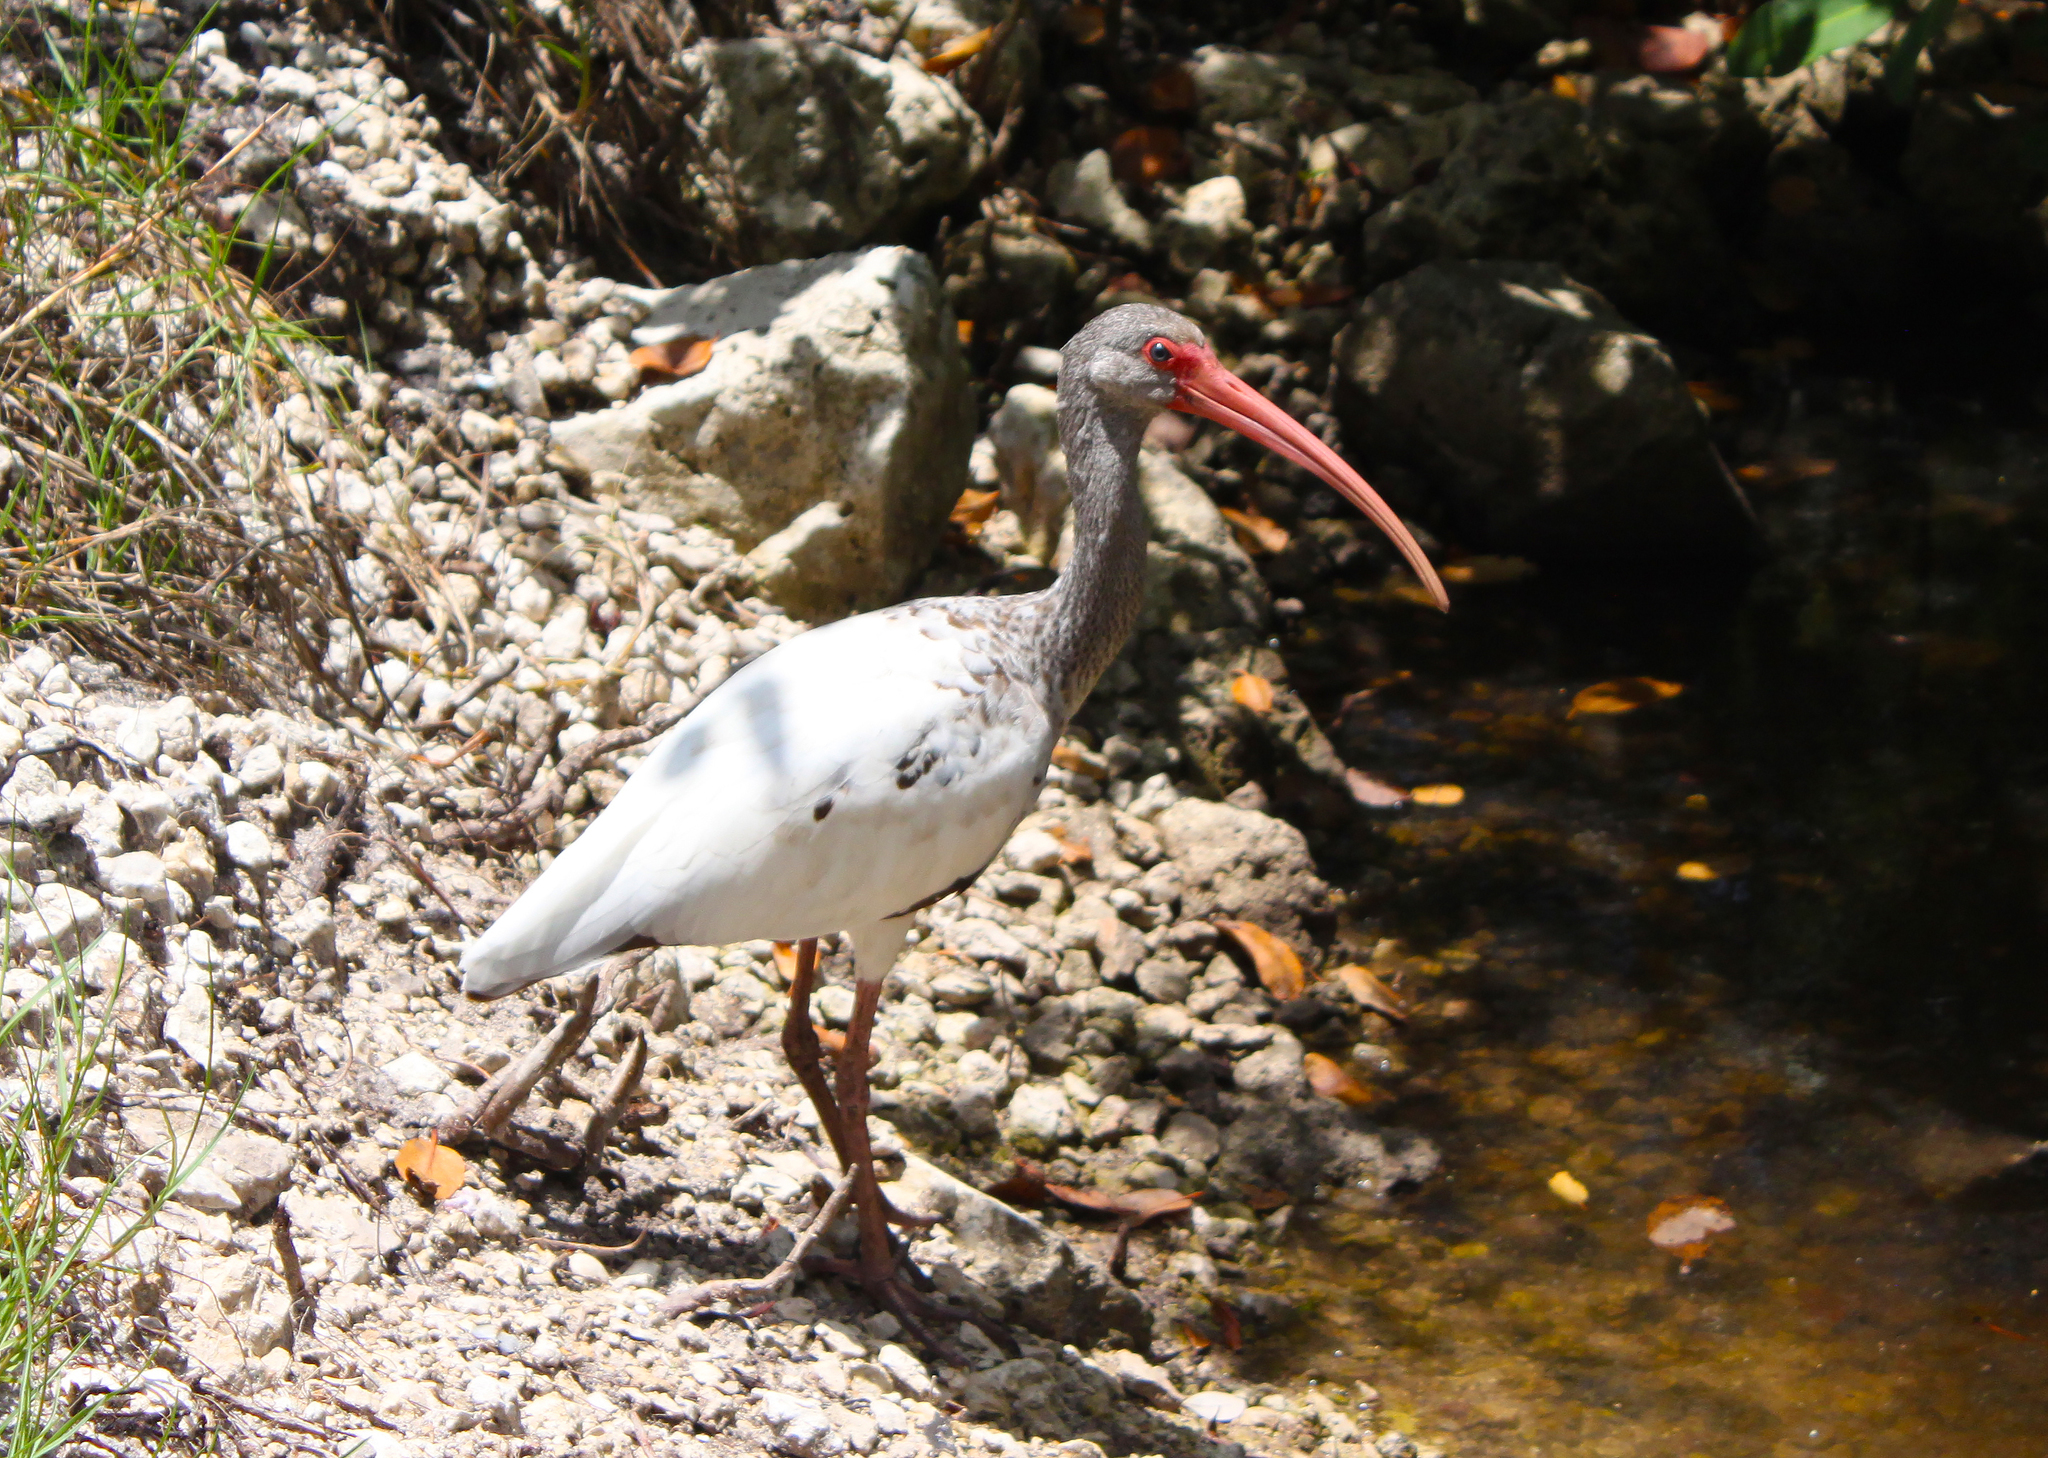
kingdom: Animalia
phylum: Chordata
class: Aves
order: Pelecaniformes
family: Threskiornithidae
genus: Eudocimus
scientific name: Eudocimus albus
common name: White ibis
